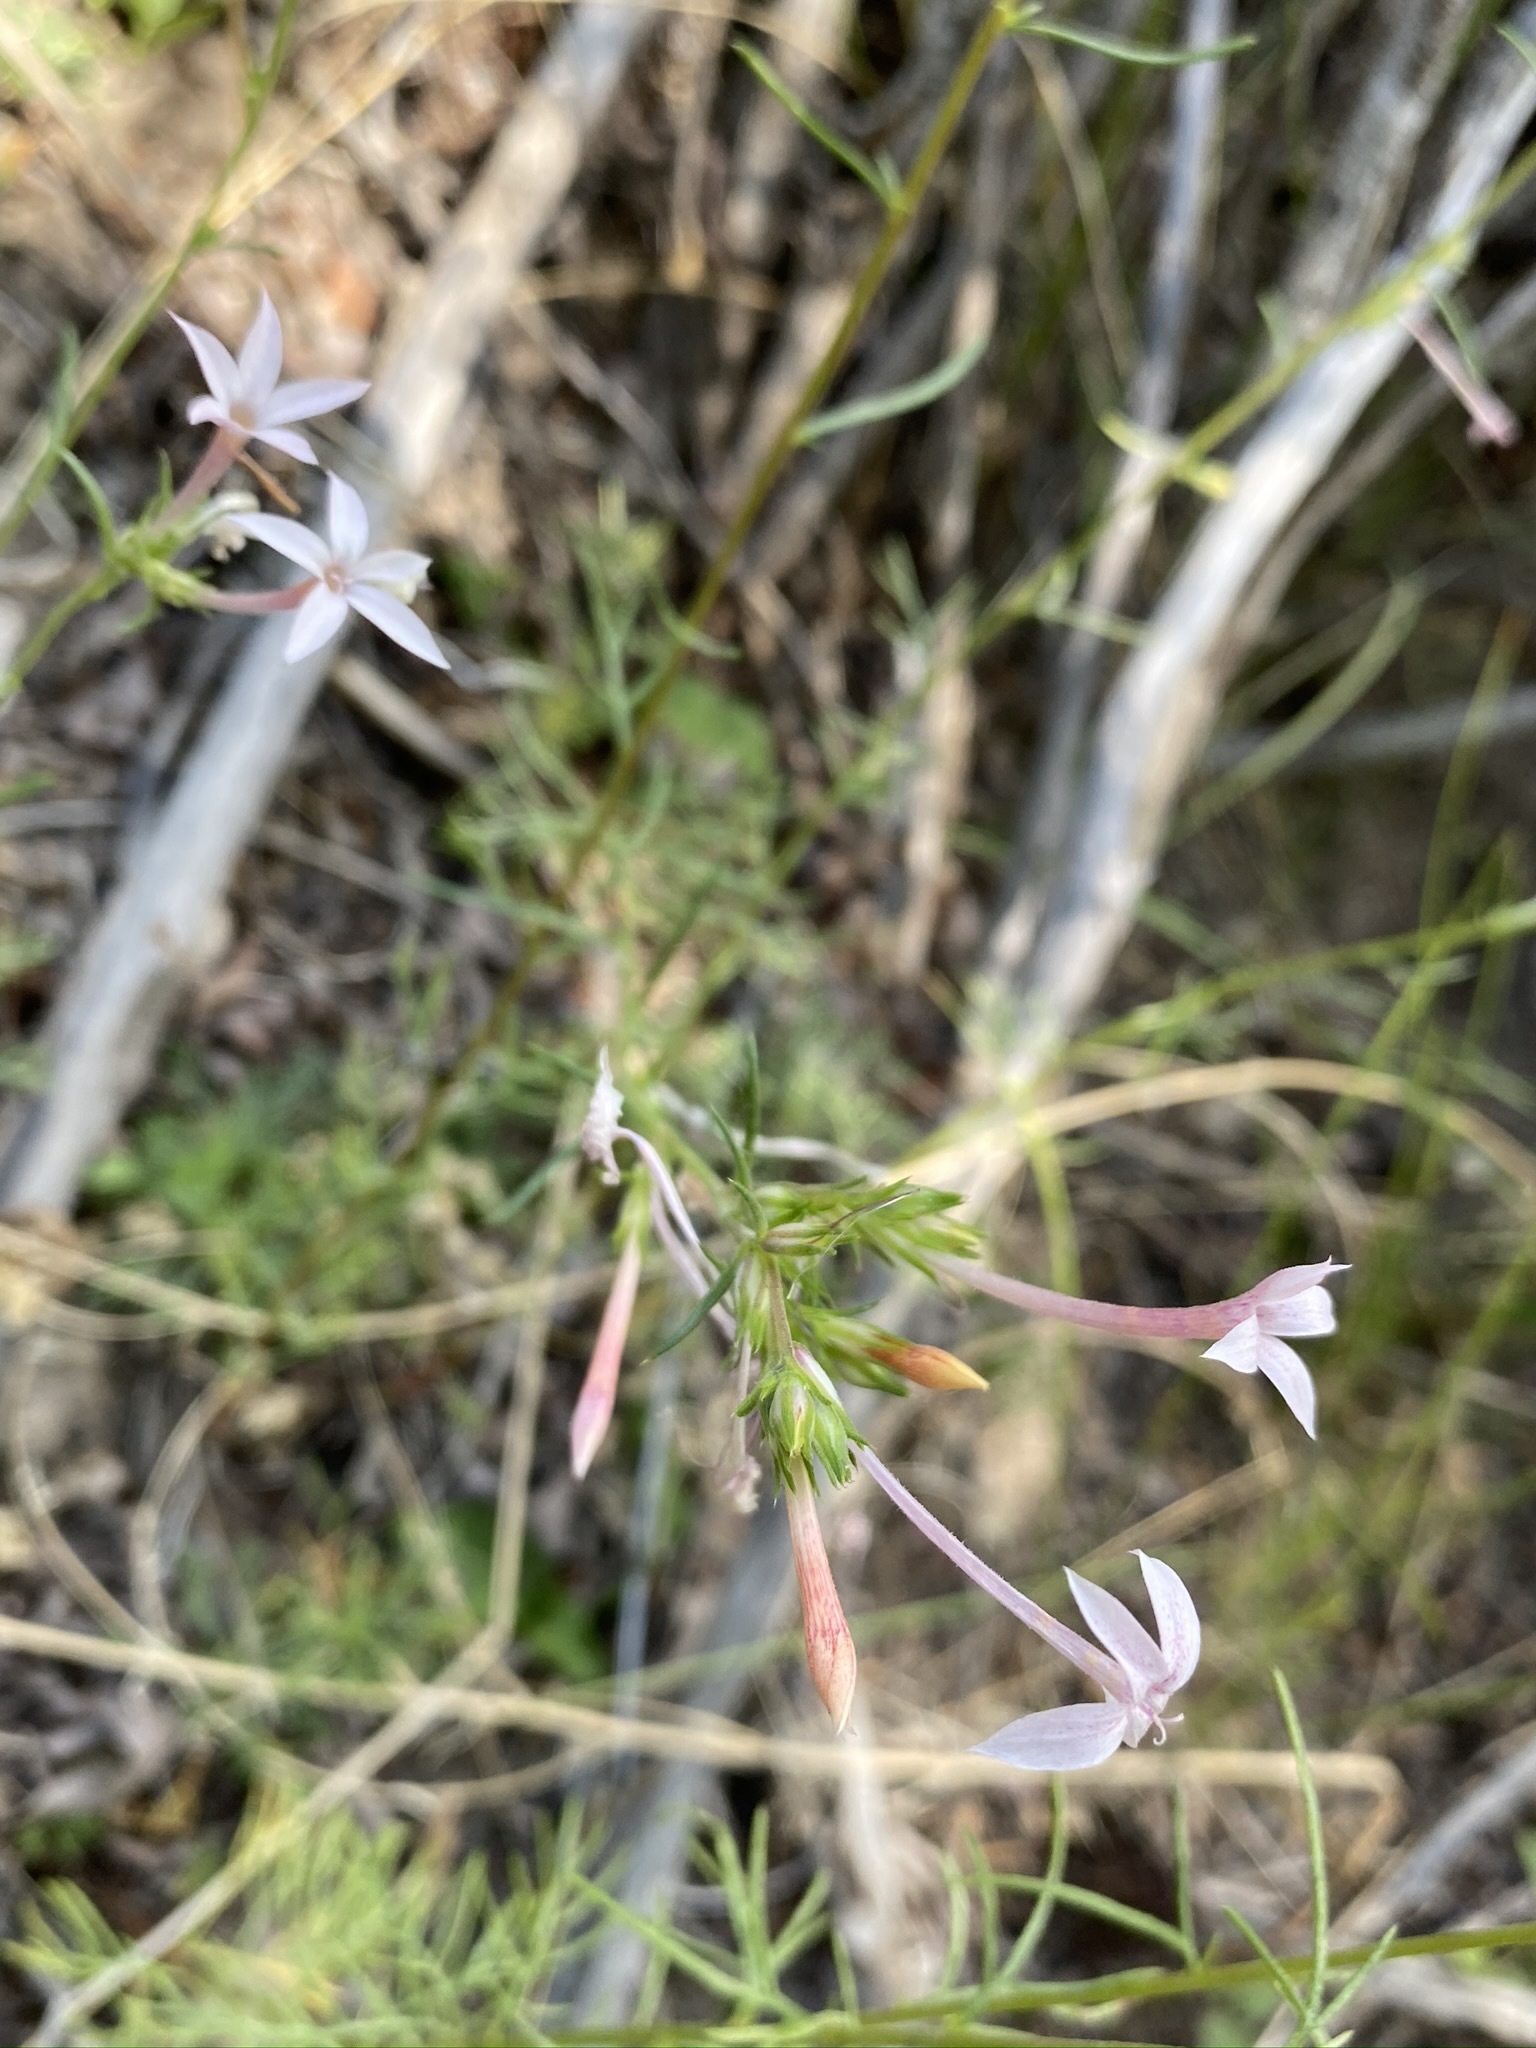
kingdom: Plantae
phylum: Tracheophyta
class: Magnoliopsida
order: Ericales
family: Polemoniaceae
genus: Ipomopsis
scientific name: Ipomopsis tenuituba
